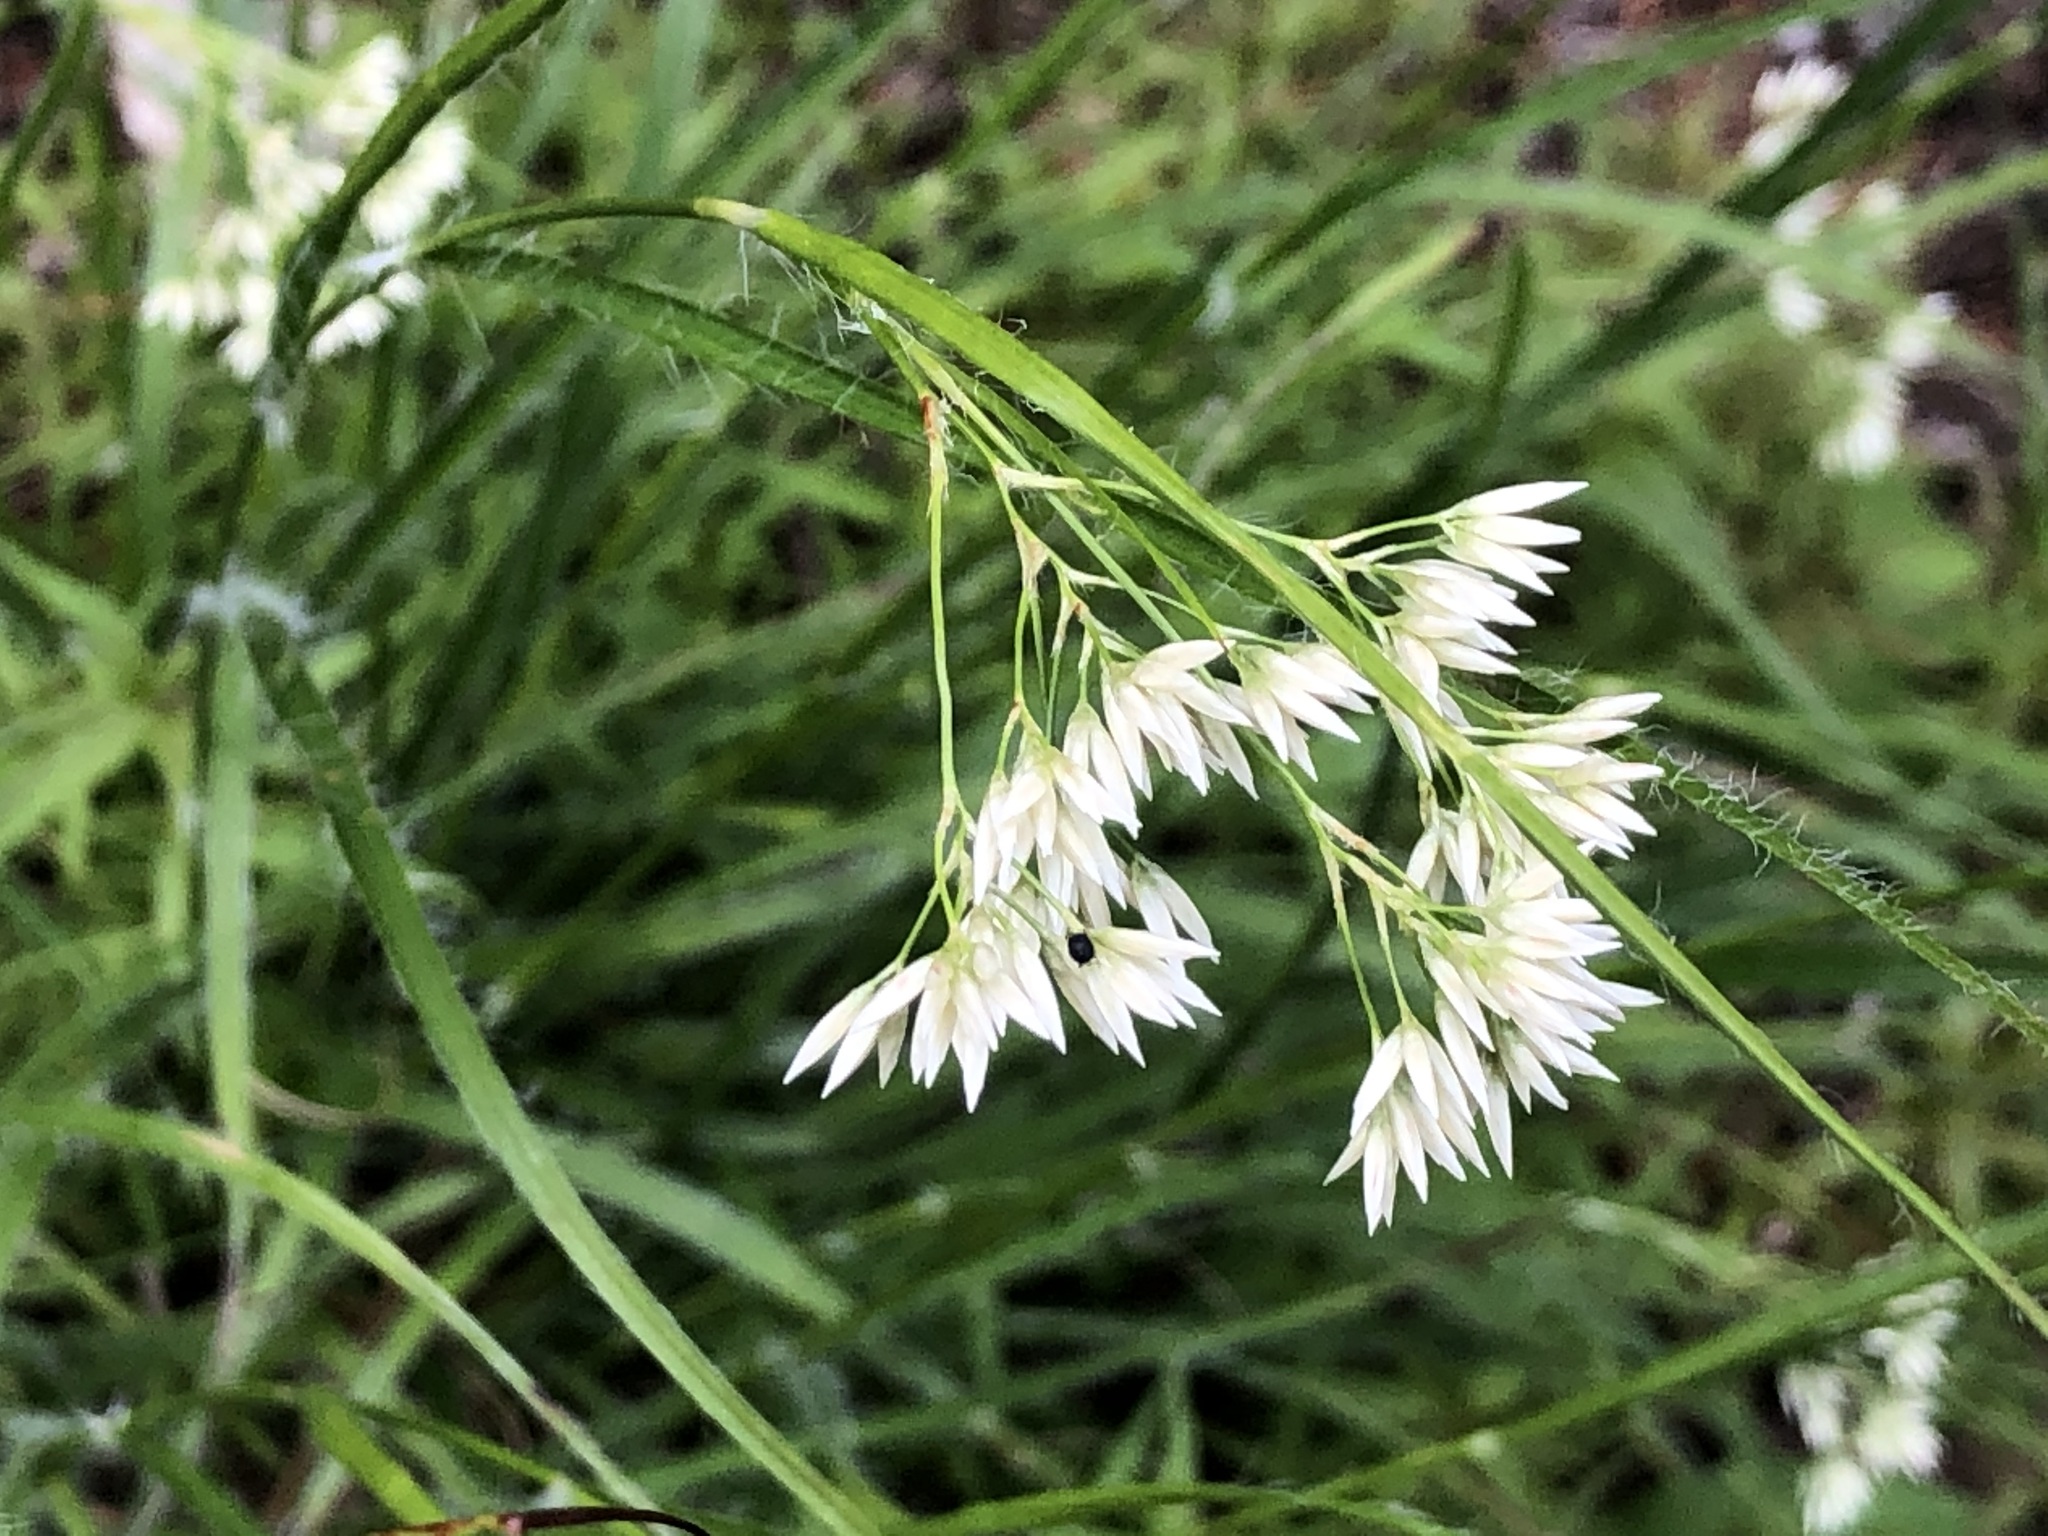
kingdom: Plantae
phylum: Tracheophyta
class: Liliopsida
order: Poales
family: Juncaceae
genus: Luzula
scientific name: Luzula nivea
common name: Snow-white wood-rush
